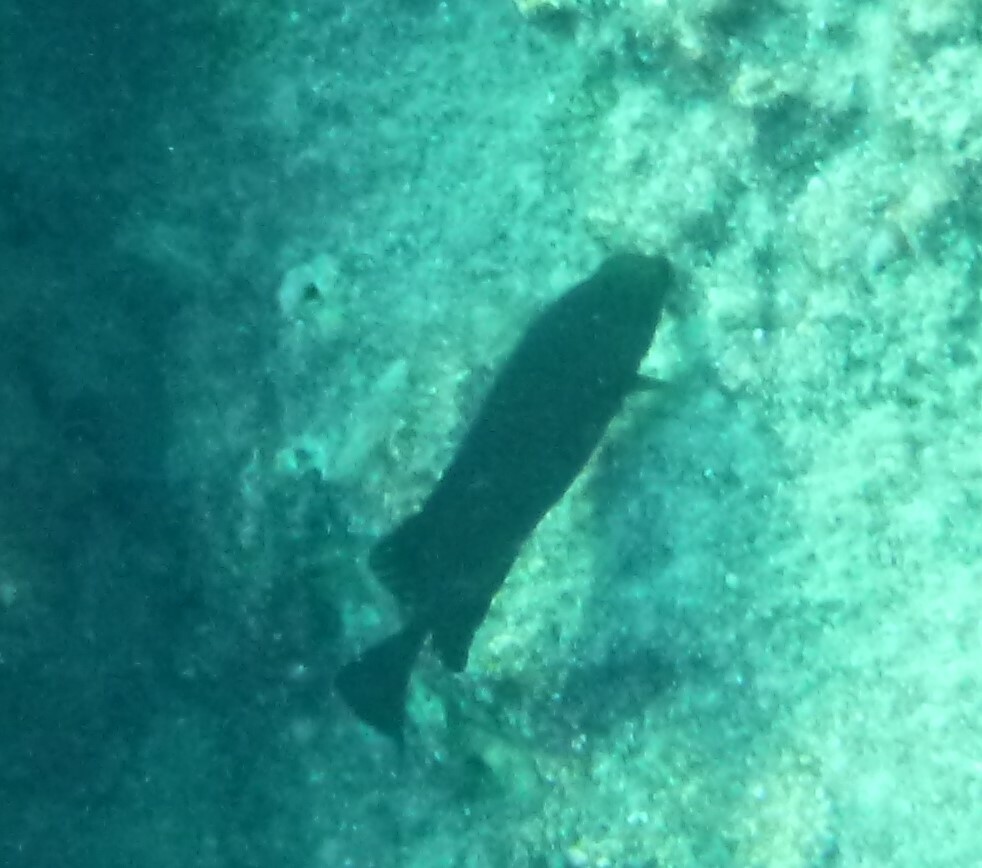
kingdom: Animalia
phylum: Chordata
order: Perciformes
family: Siganidae
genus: Siganus
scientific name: Siganus
